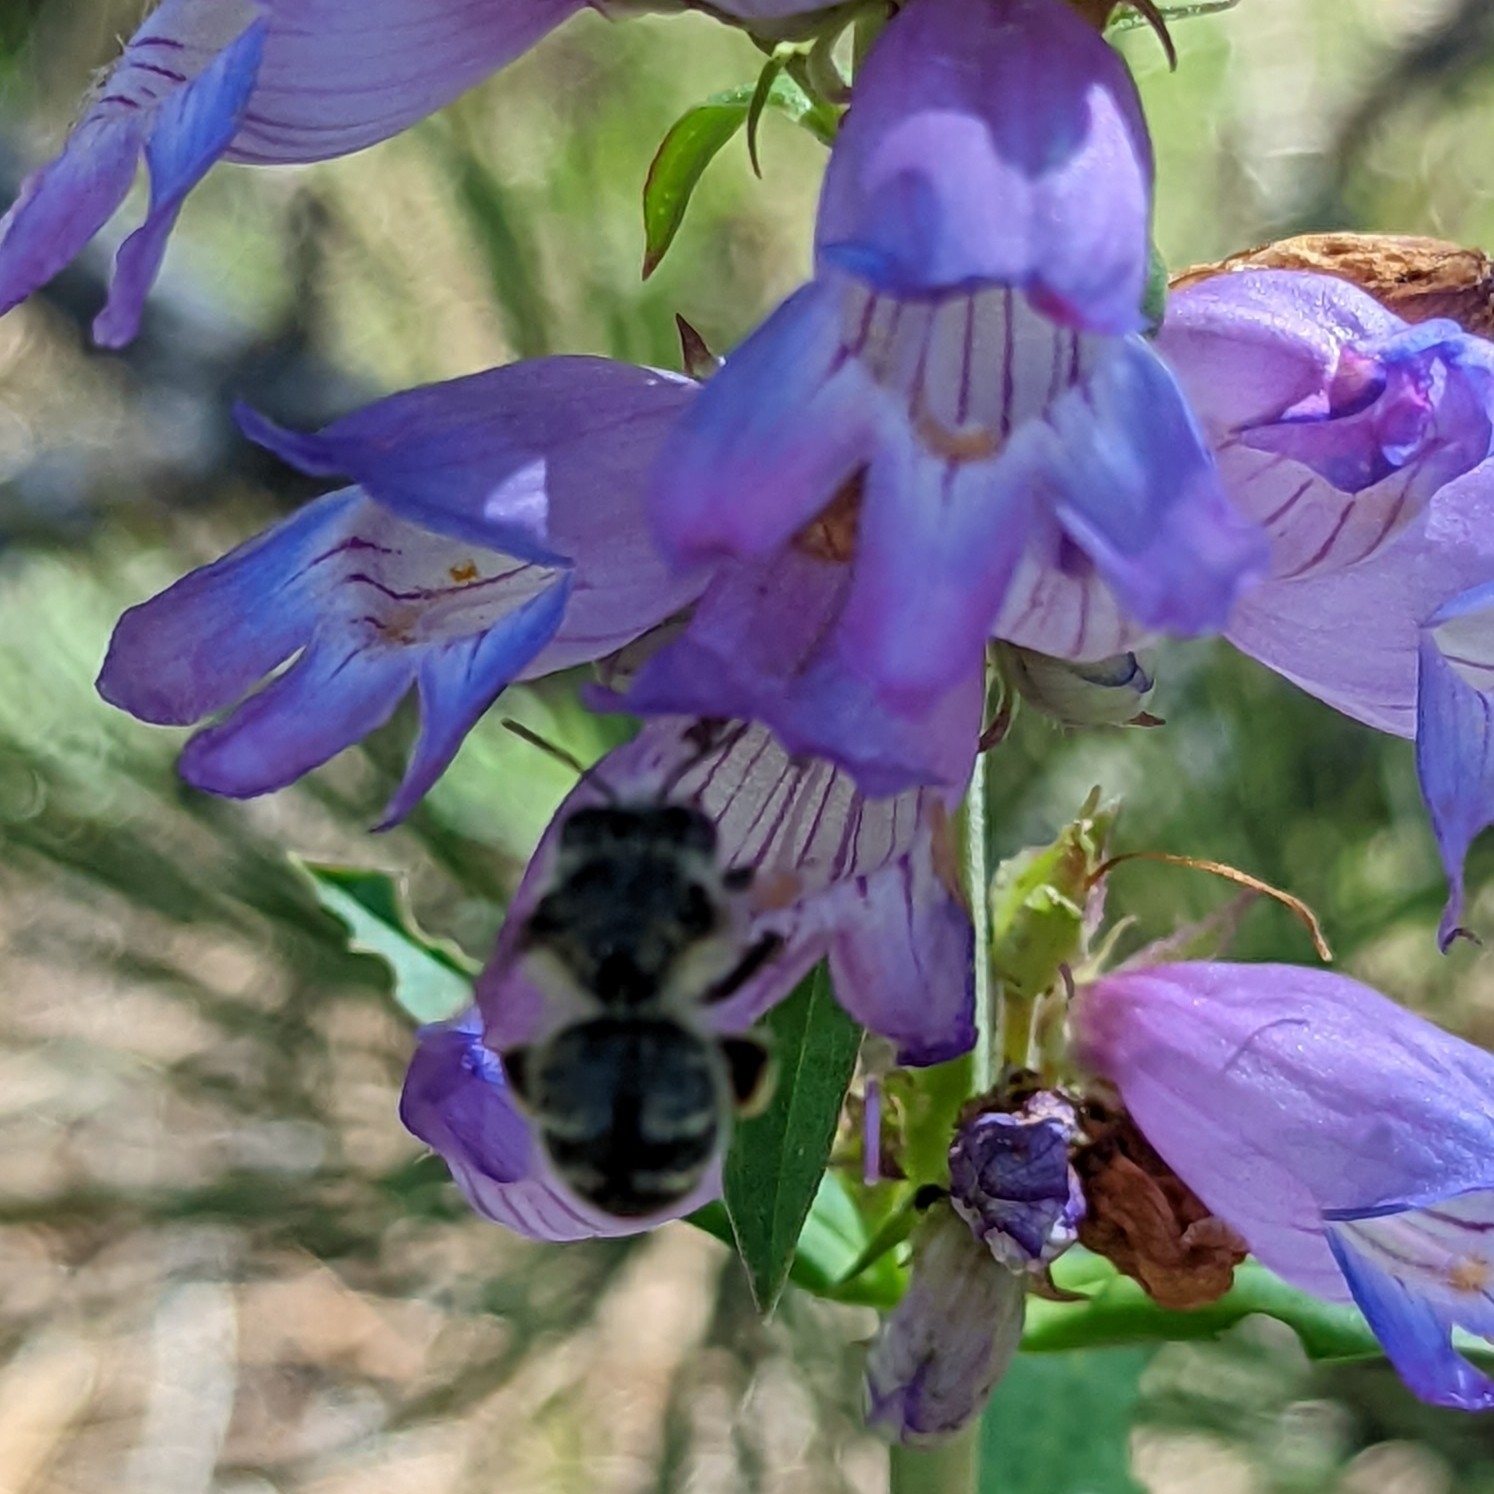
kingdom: Animalia
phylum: Arthropoda
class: Insecta
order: Hymenoptera
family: Apidae
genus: Anthophora
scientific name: Anthophora terminalis
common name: Orange-tipped wood-digger bee
